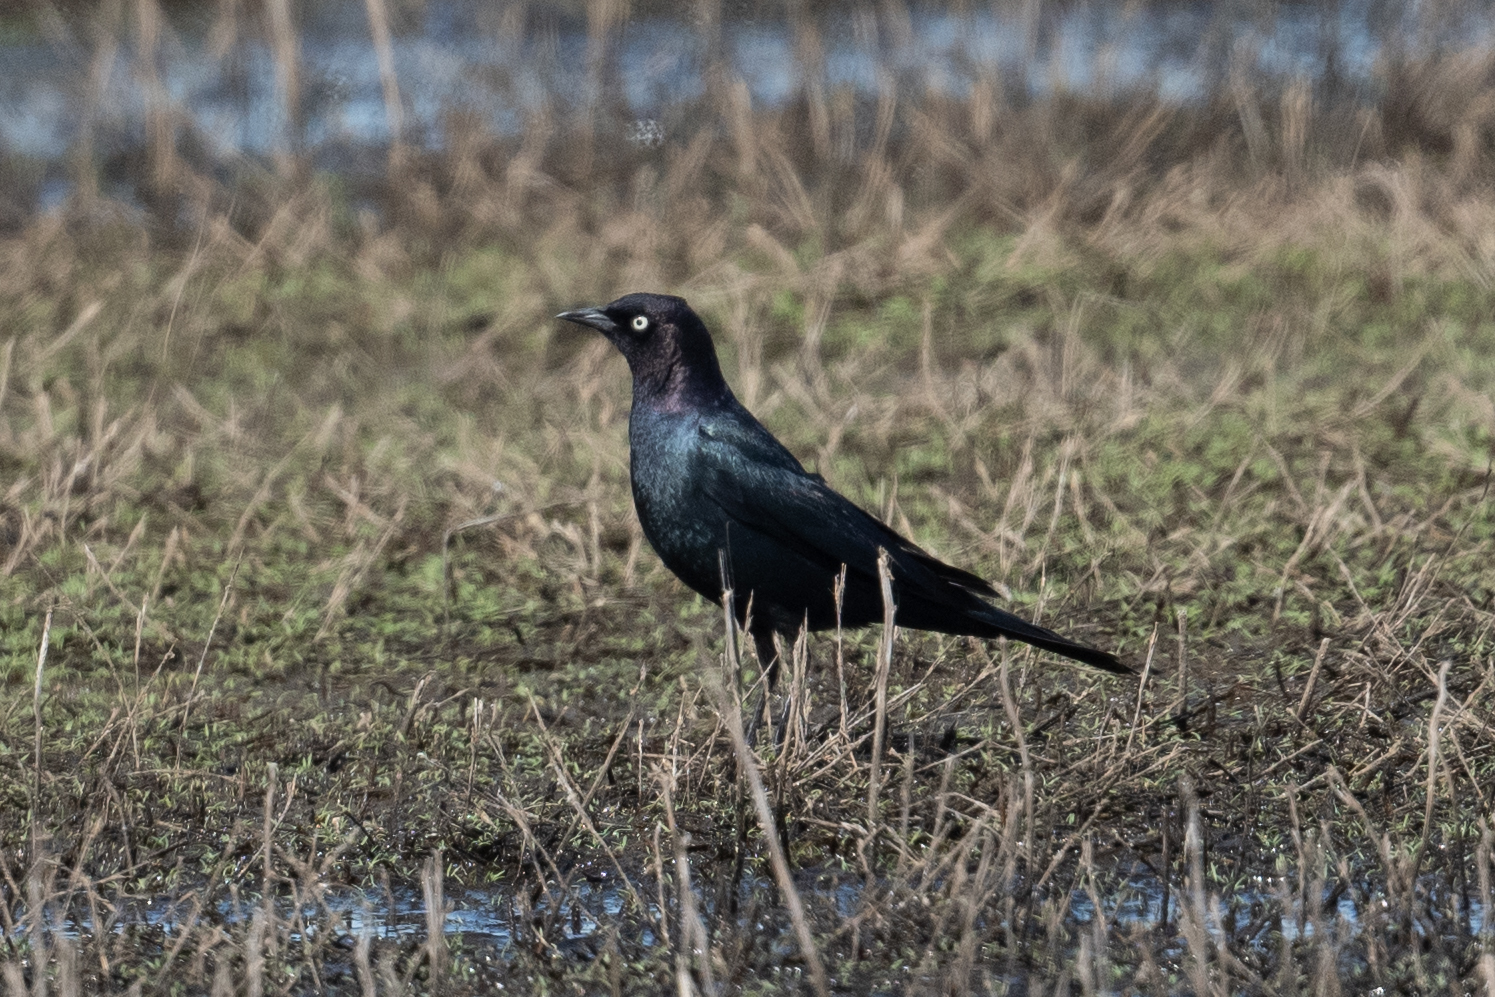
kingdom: Animalia
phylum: Chordata
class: Aves
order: Passeriformes
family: Icteridae
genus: Euphagus
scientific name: Euphagus cyanocephalus
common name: Brewer's blackbird
